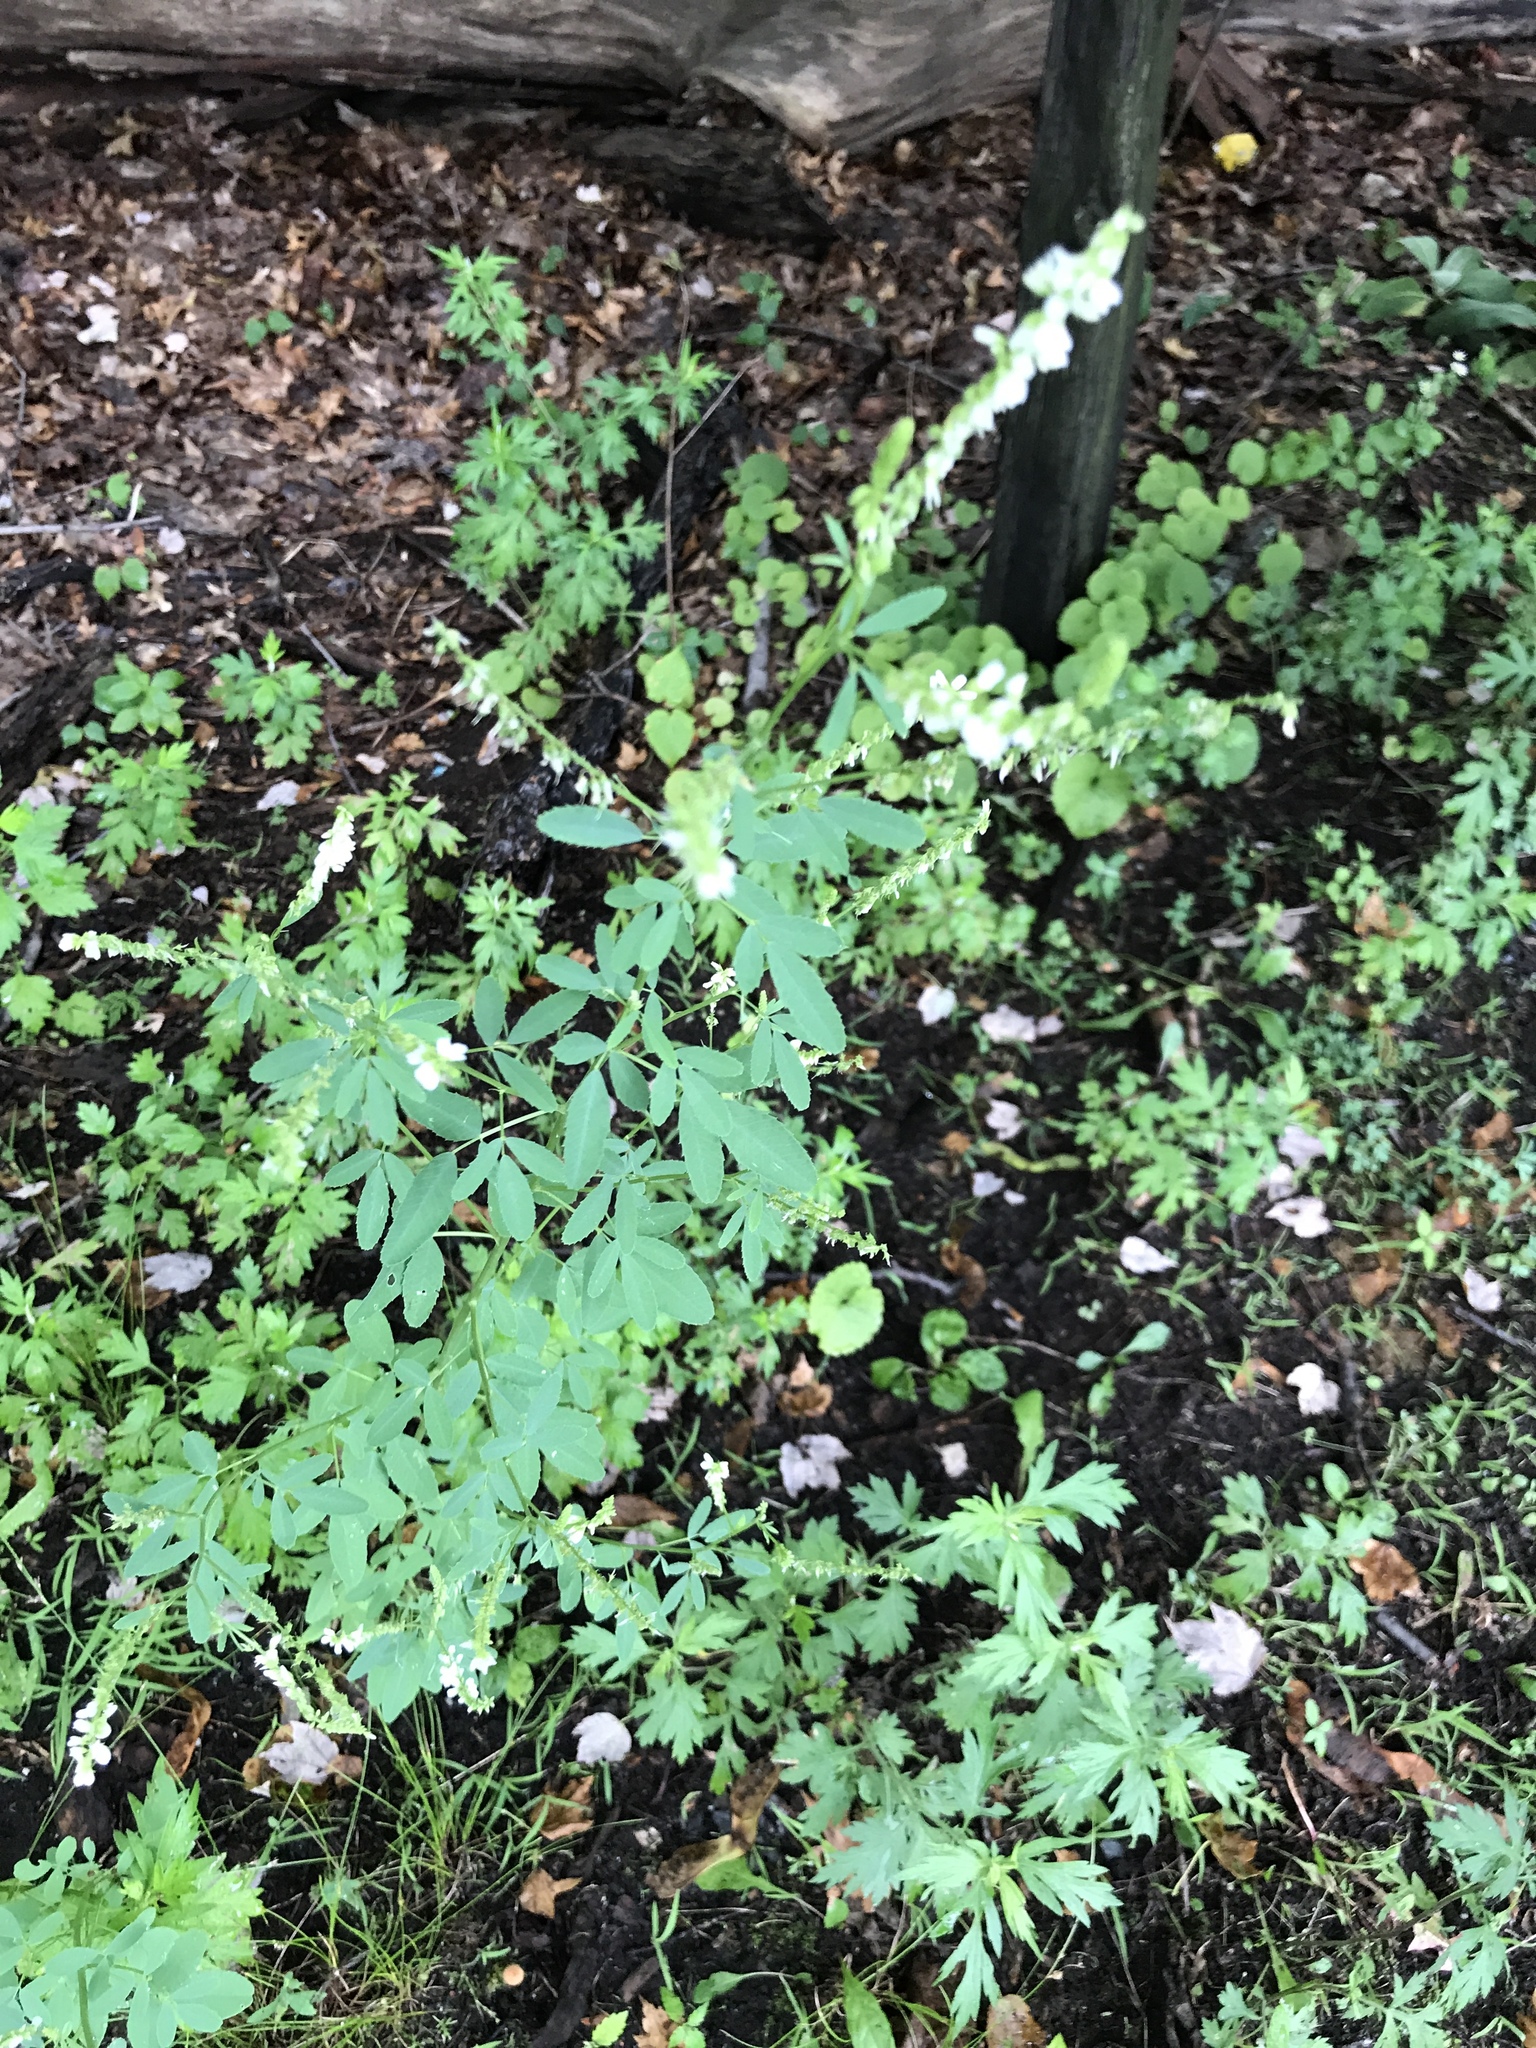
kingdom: Plantae
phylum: Tracheophyta
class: Magnoliopsida
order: Fabales
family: Fabaceae
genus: Melilotus
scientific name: Melilotus albus
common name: White melilot
